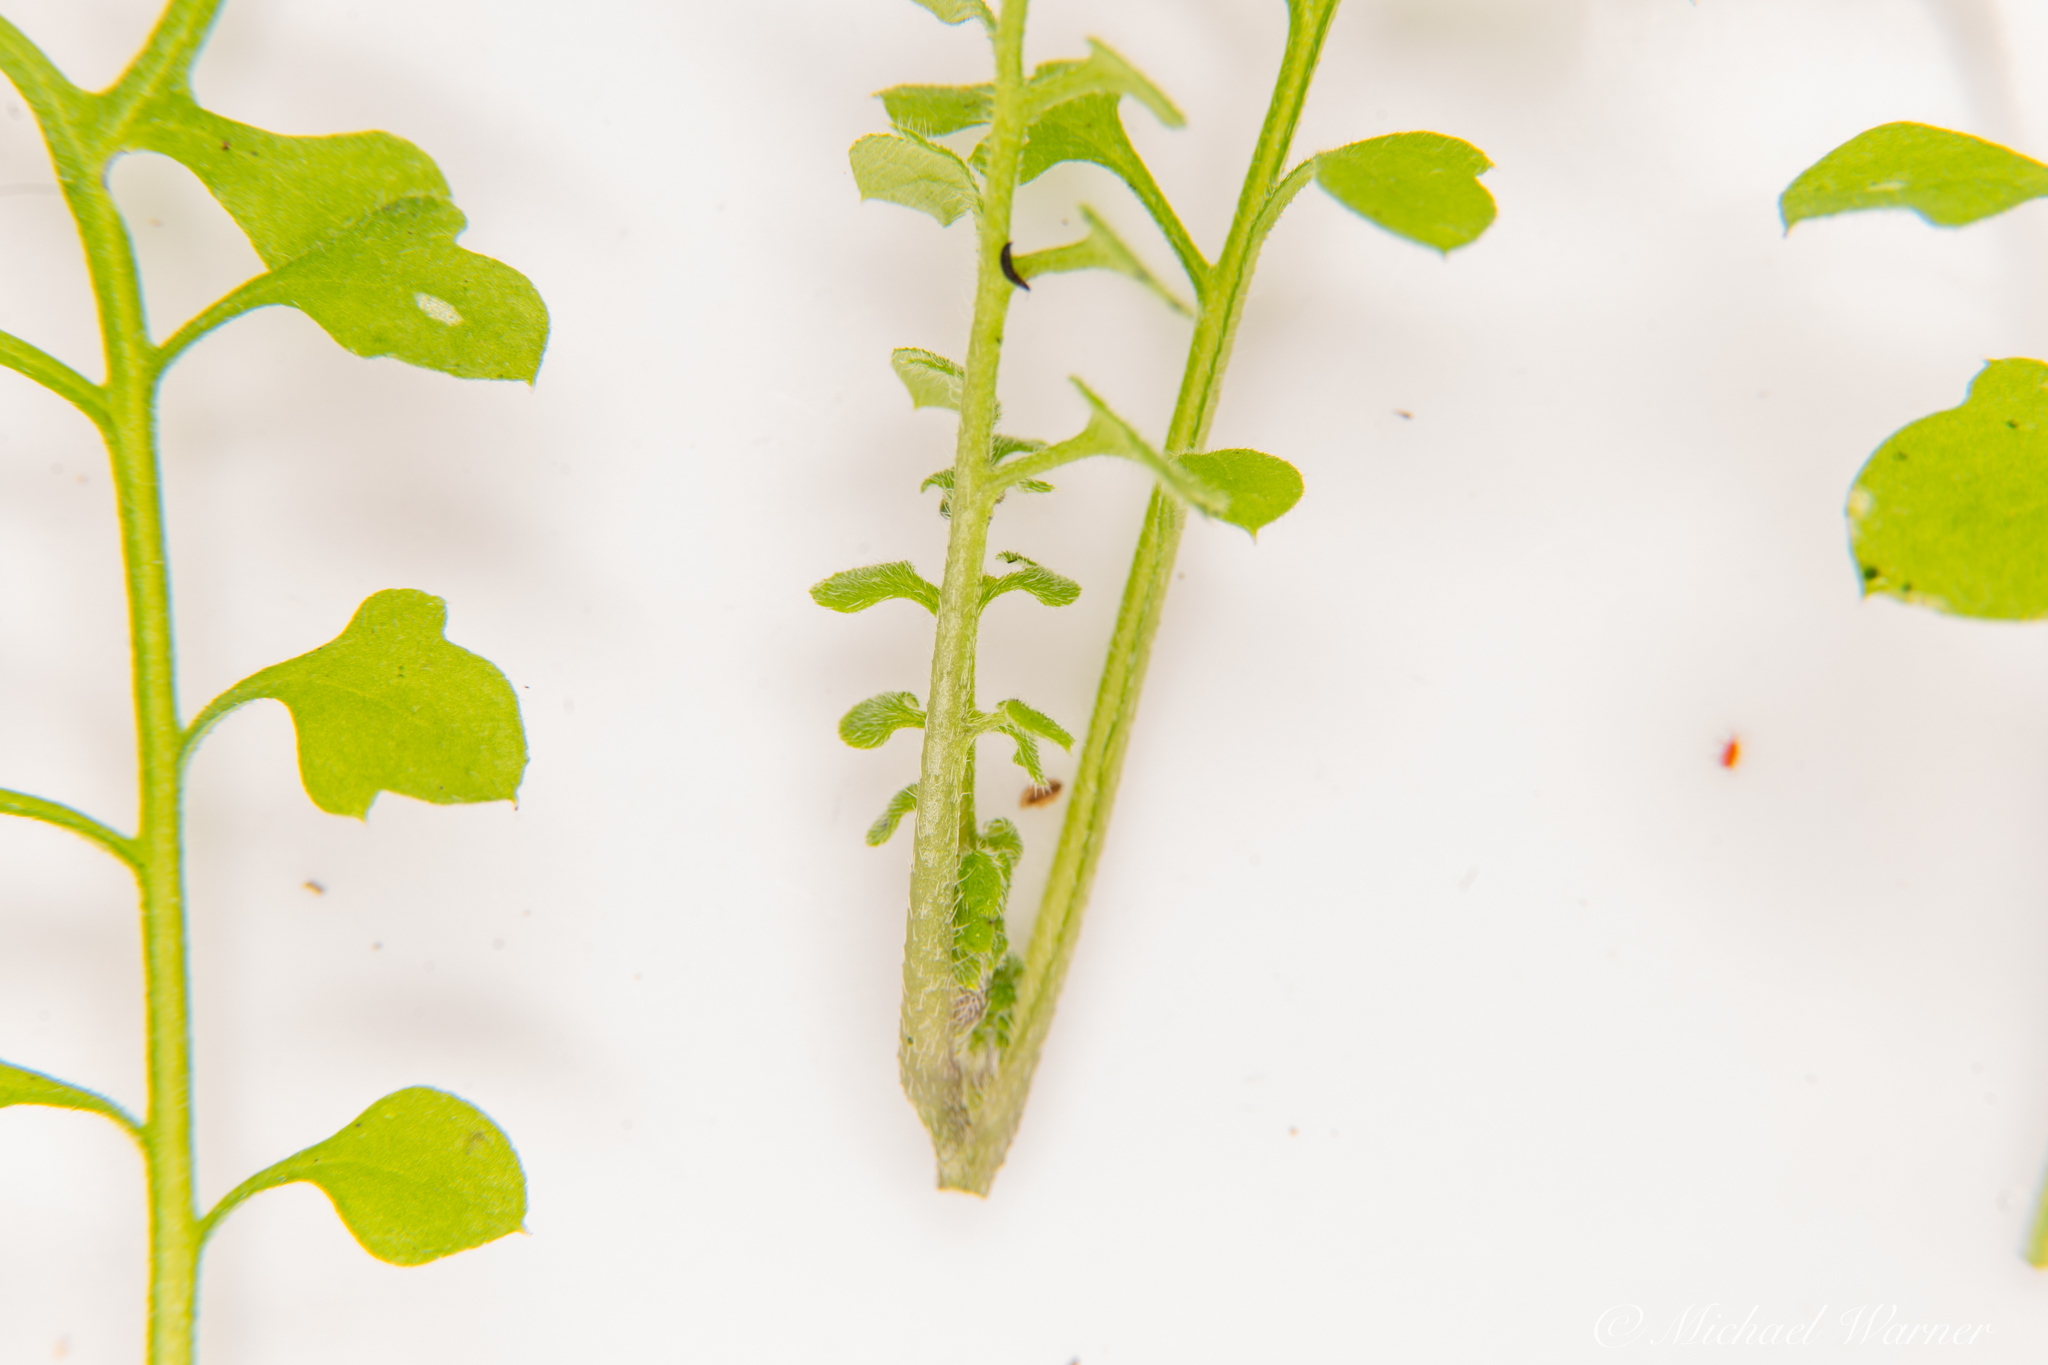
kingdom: Plantae
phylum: Tracheophyta
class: Magnoliopsida
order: Boraginales
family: Hydrophyllaceae
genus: Nemophila
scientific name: Nemophila heterophylla
